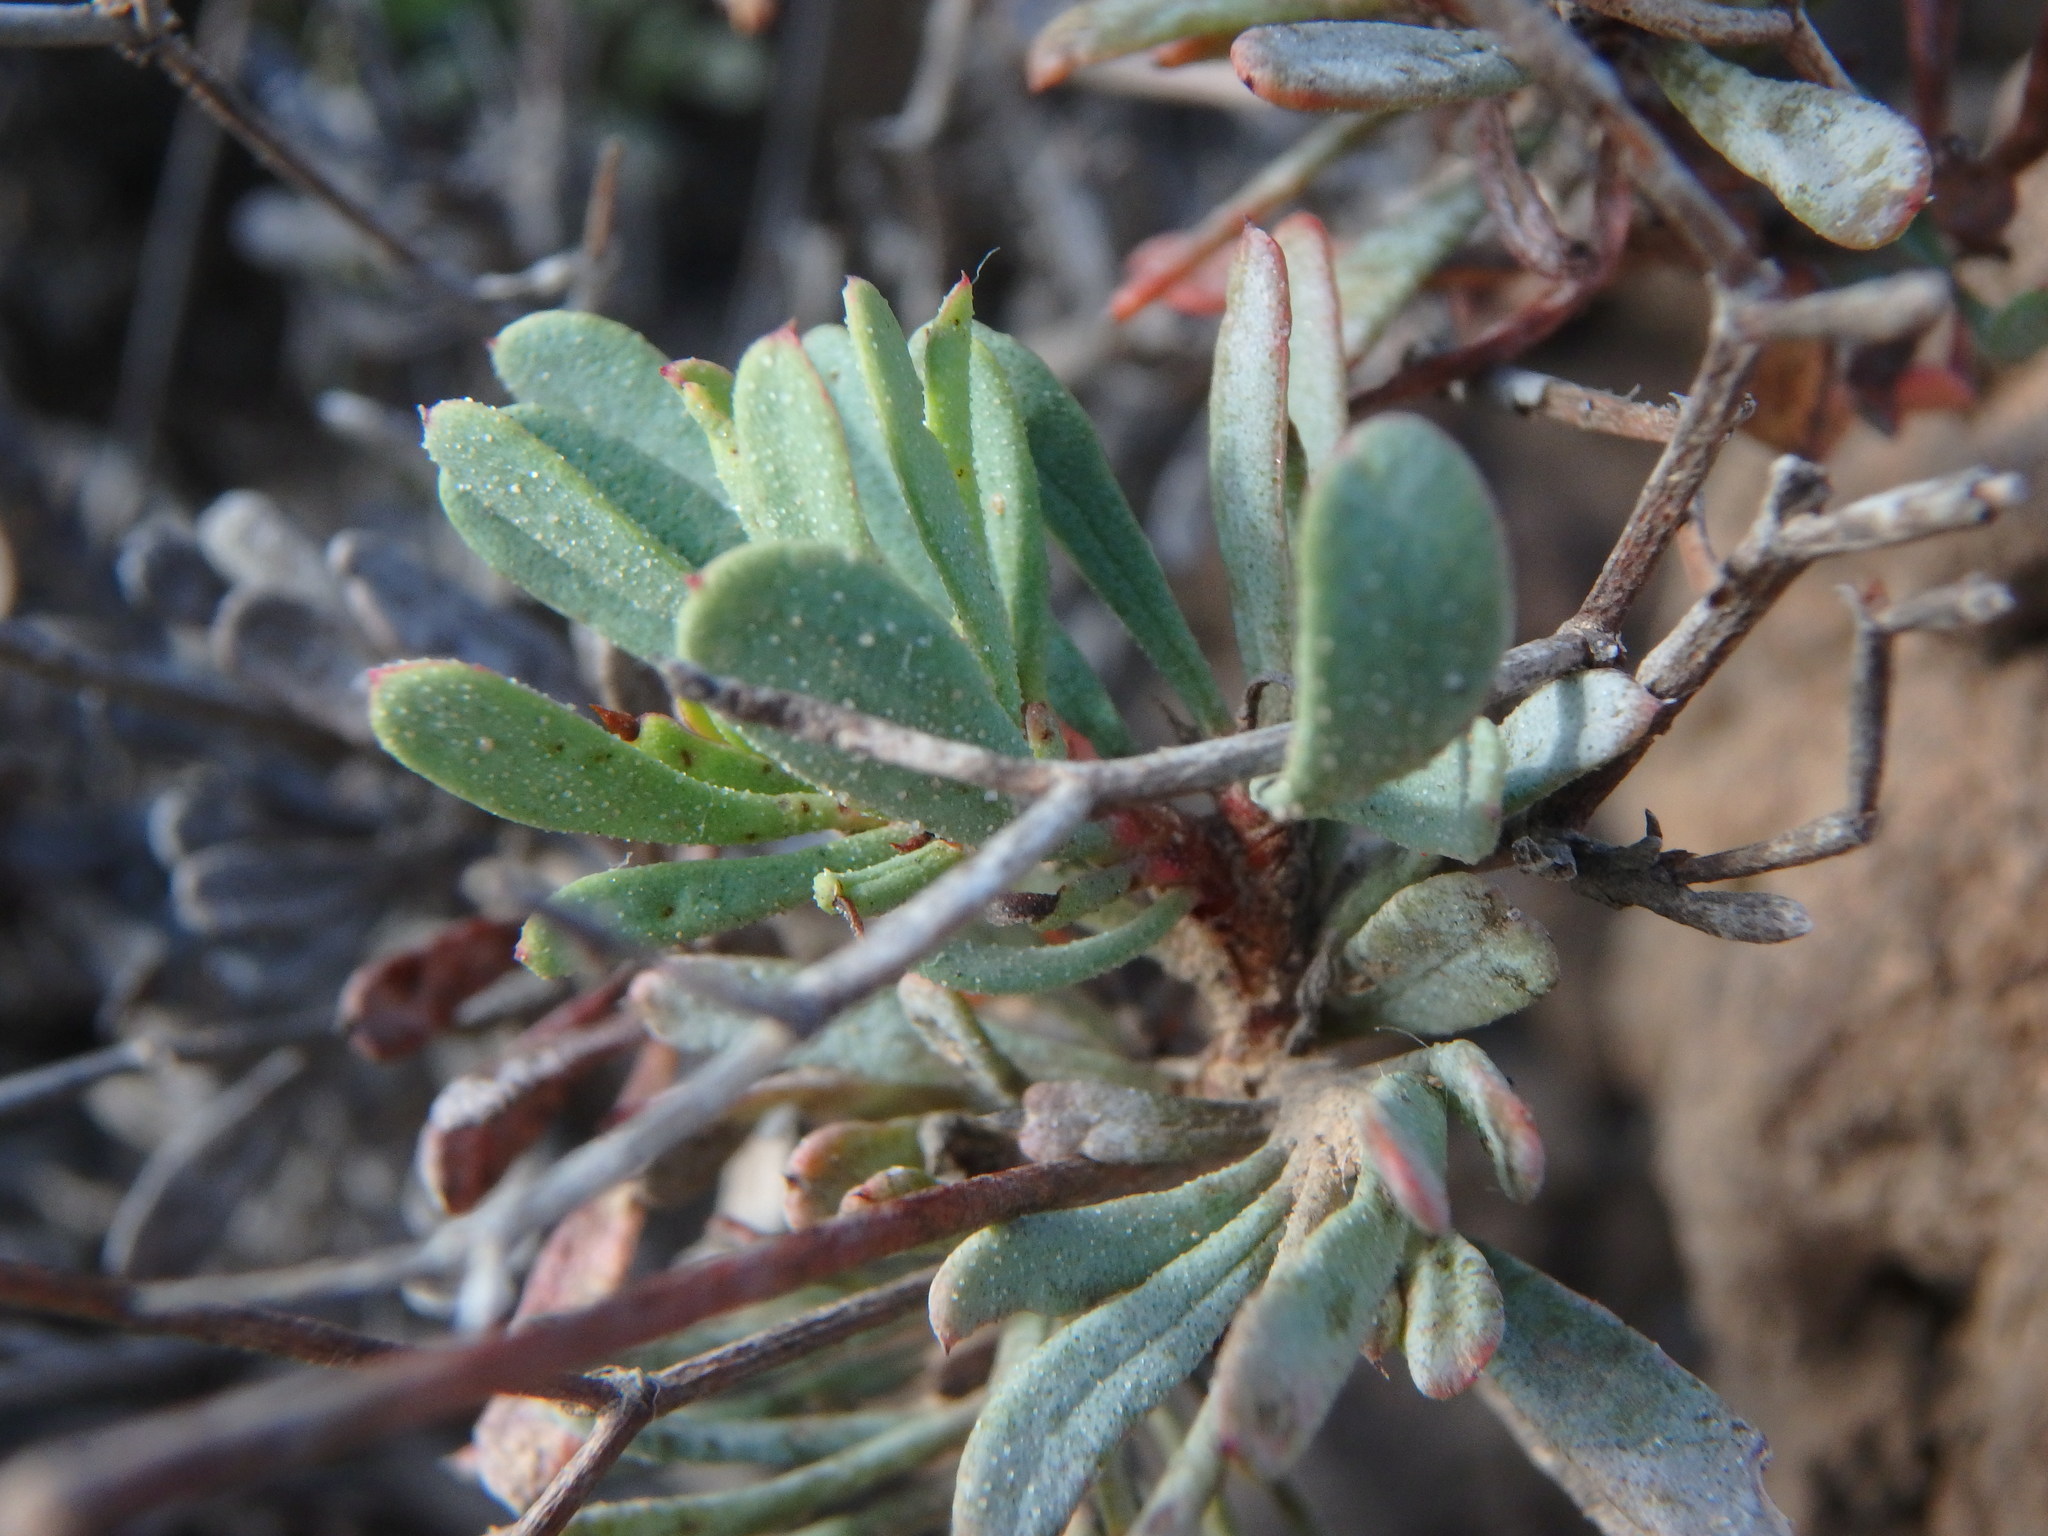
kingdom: Plantae
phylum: Tracheophyta
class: Magnoliopsida
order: Caryophyllales
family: Plumbaginaceae
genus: Limonium
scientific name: Limonium pectinatum
